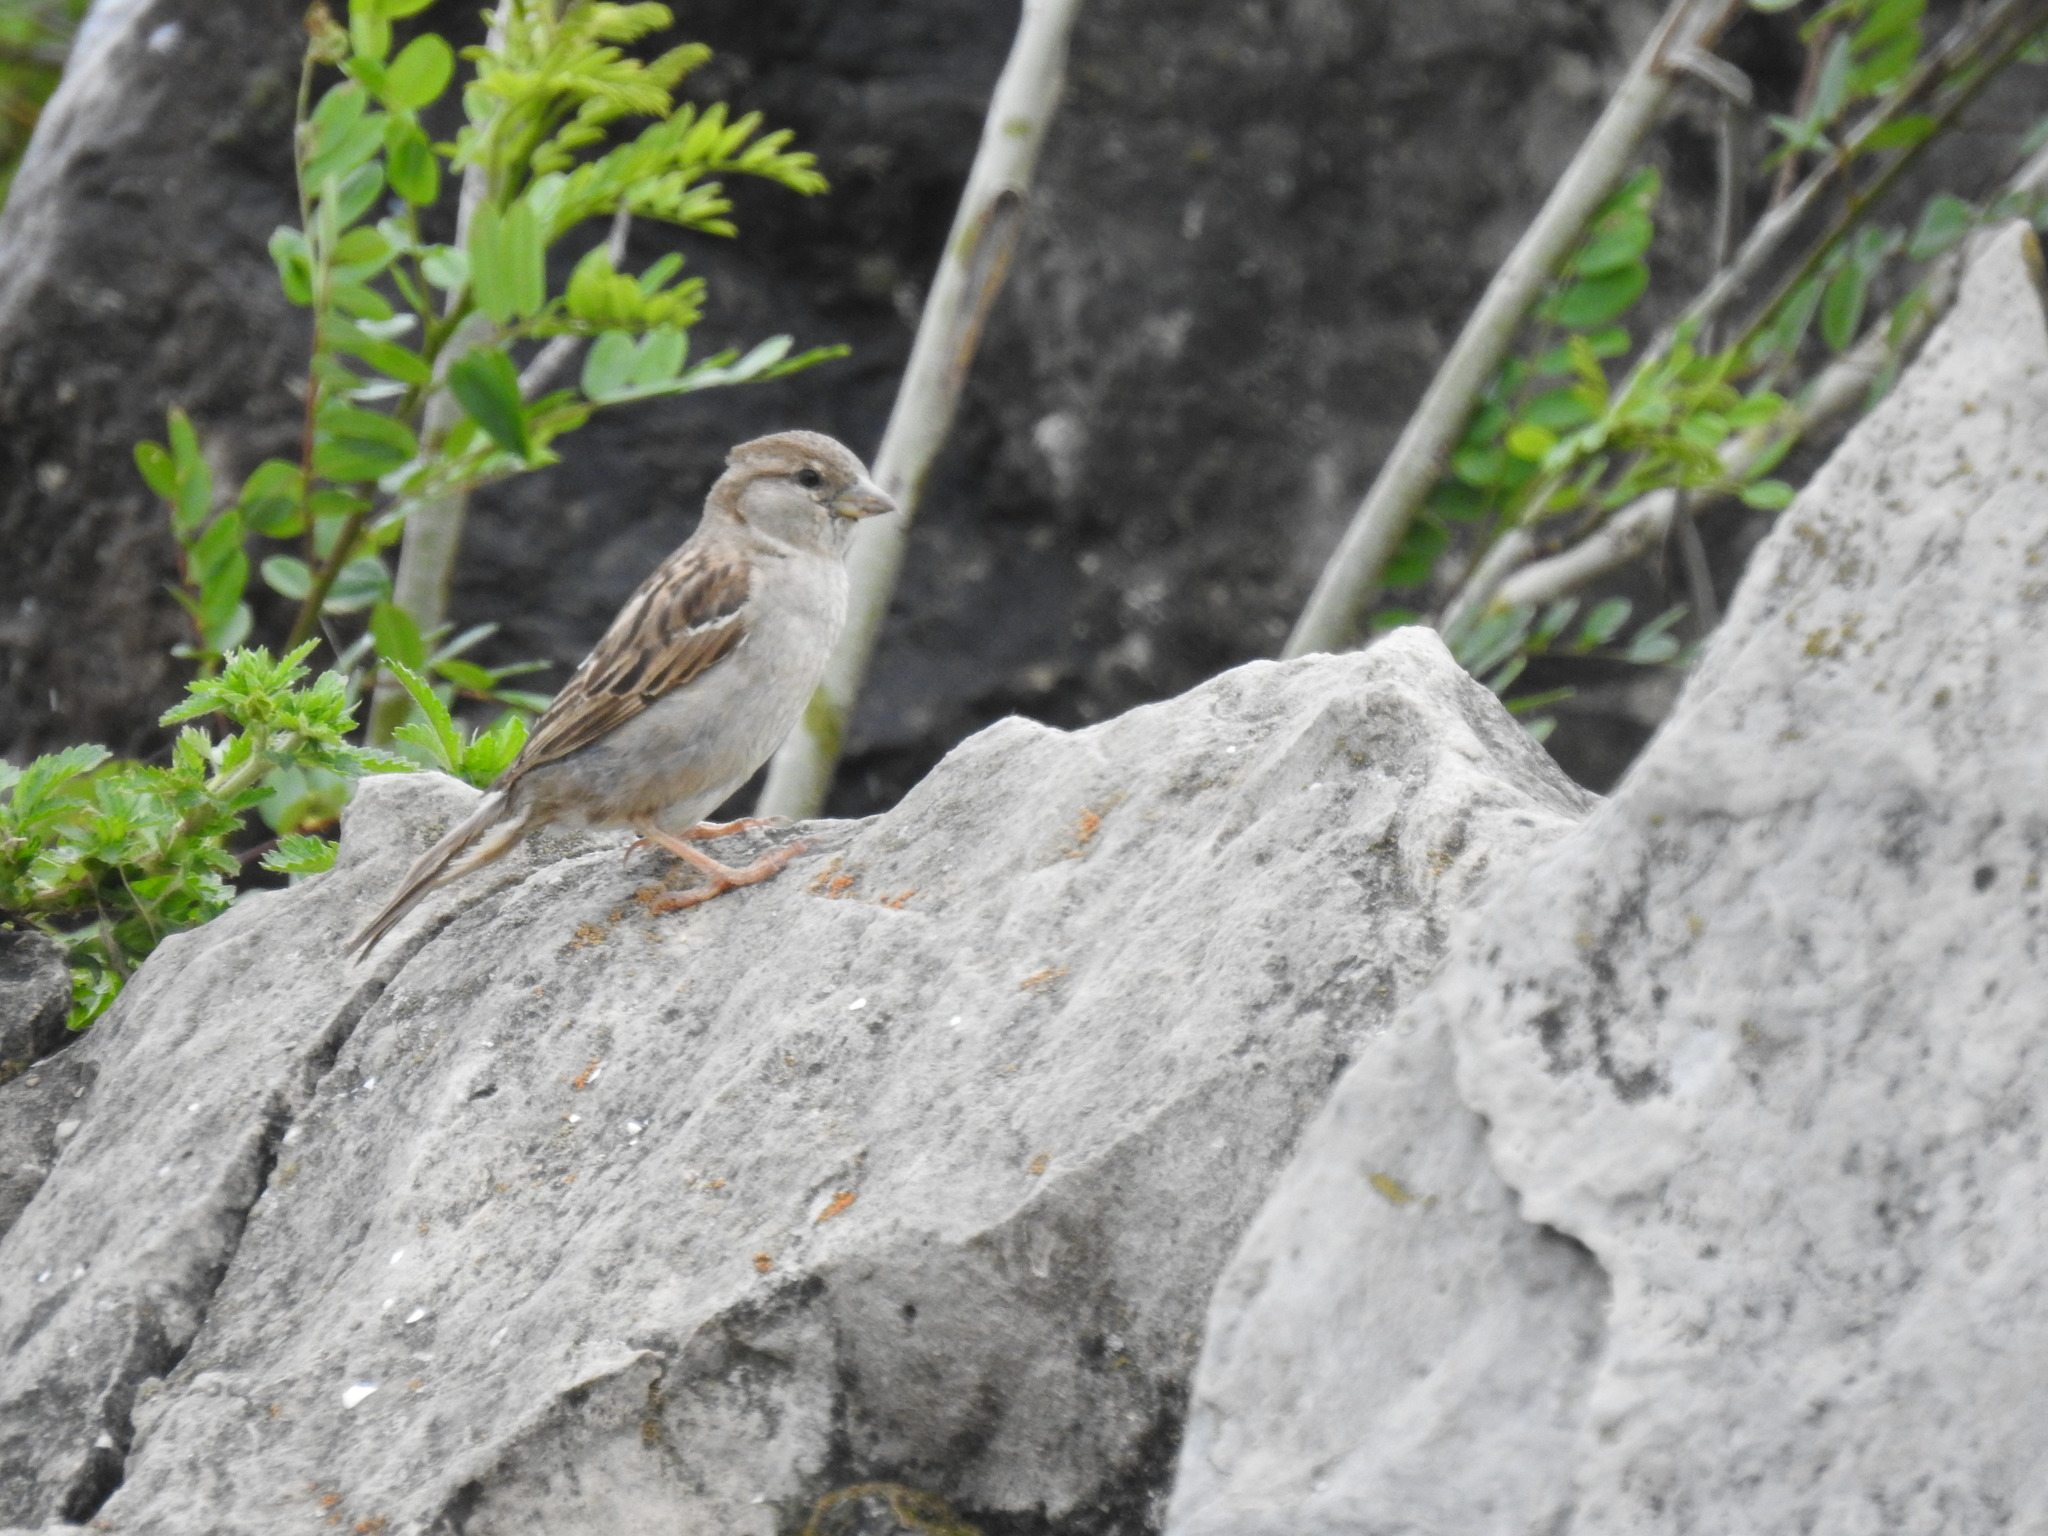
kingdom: Animalia
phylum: Chordata
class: Aves
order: Passeriformes
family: Passeridae
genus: Passer
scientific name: Passer domesticus
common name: House sparrow
